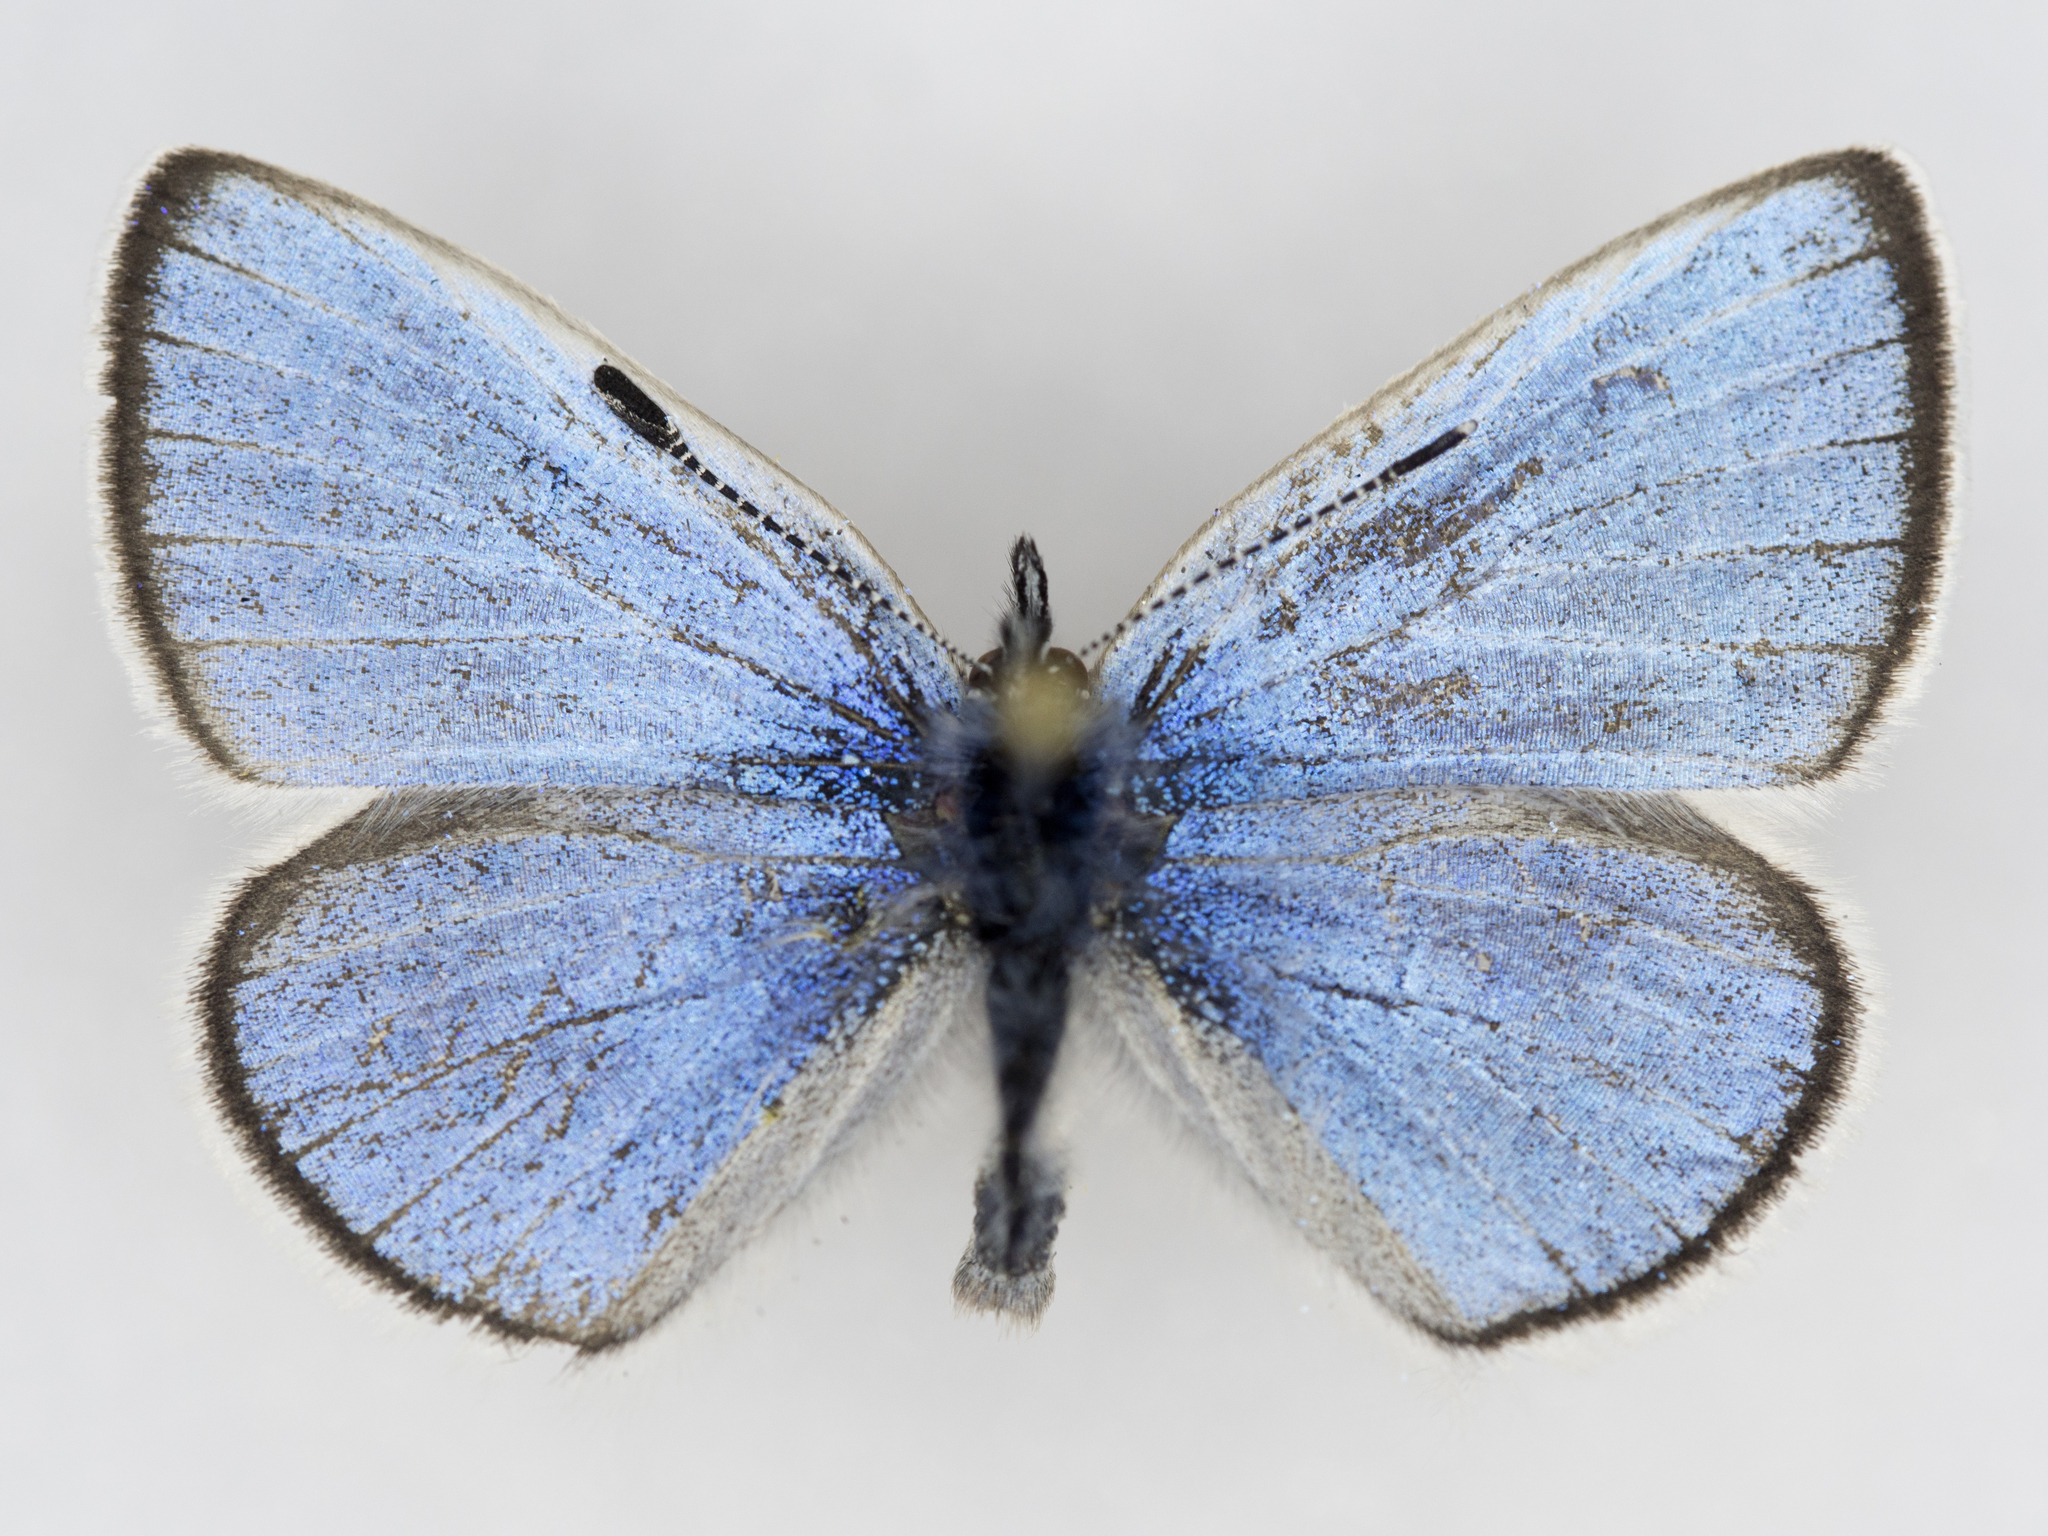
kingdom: Animalia
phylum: Arthropoda
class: Insecta
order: Lepidoptera
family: Lycaenidae
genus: Glaucopsyche
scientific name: Glaucopsyche lygdamus
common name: Silvery blue
